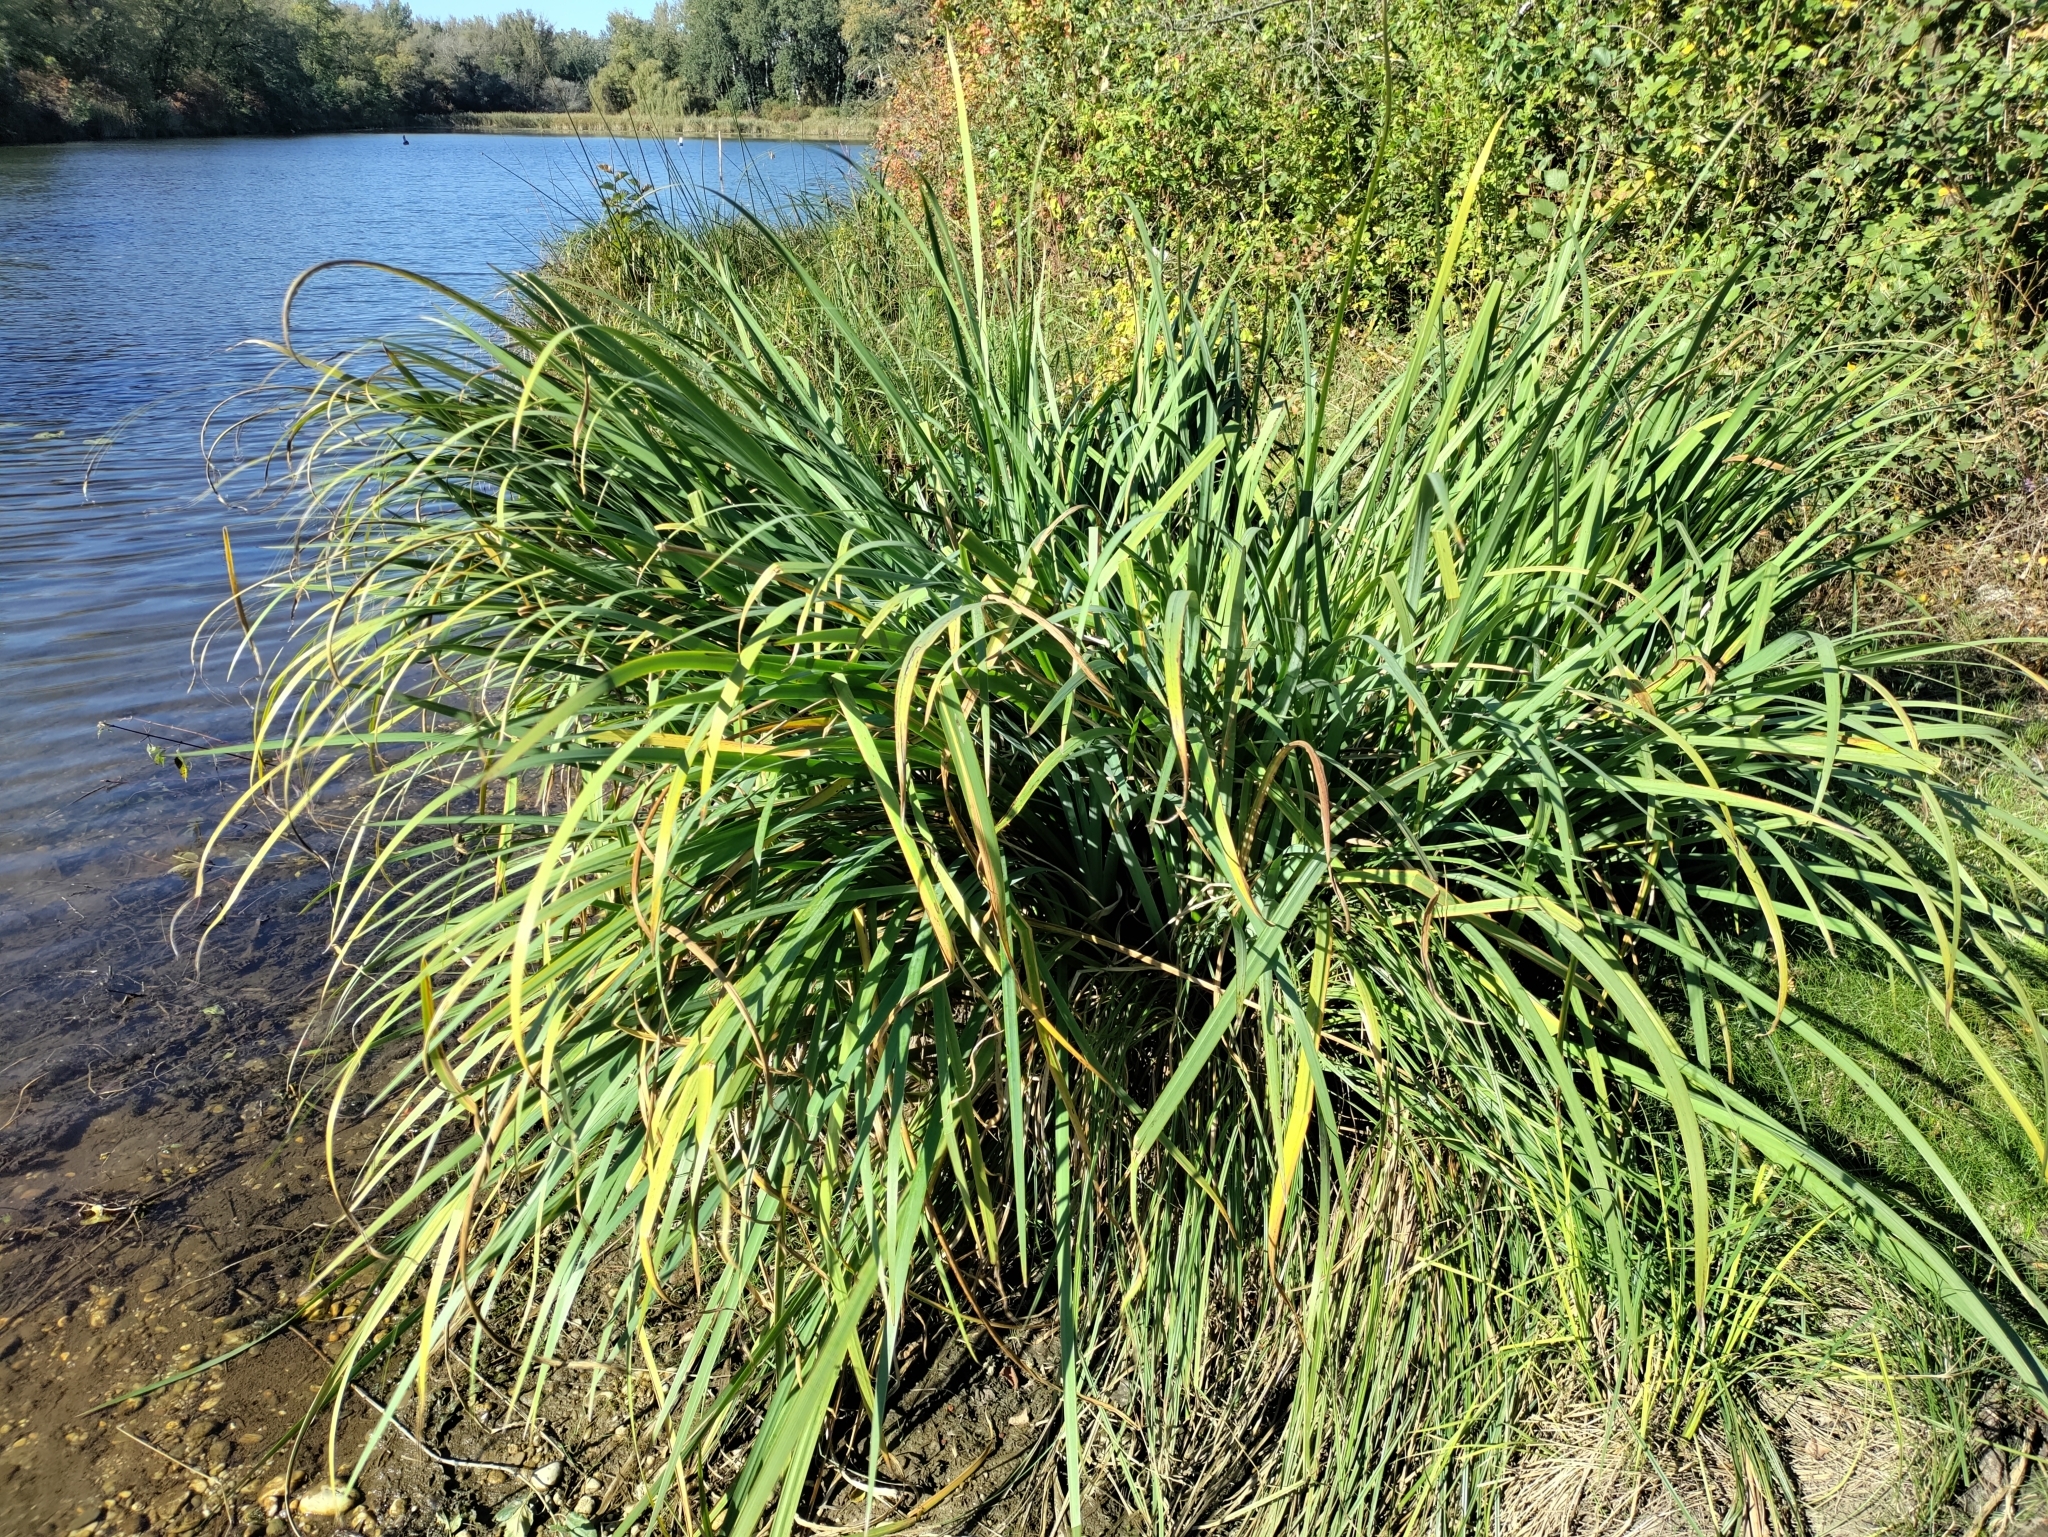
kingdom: Plantae
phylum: Tracheophyta
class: Liliopsida
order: Asparagales
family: Iridaceae
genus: Iris
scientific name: Iris pseudacorus
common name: Yellow flag
